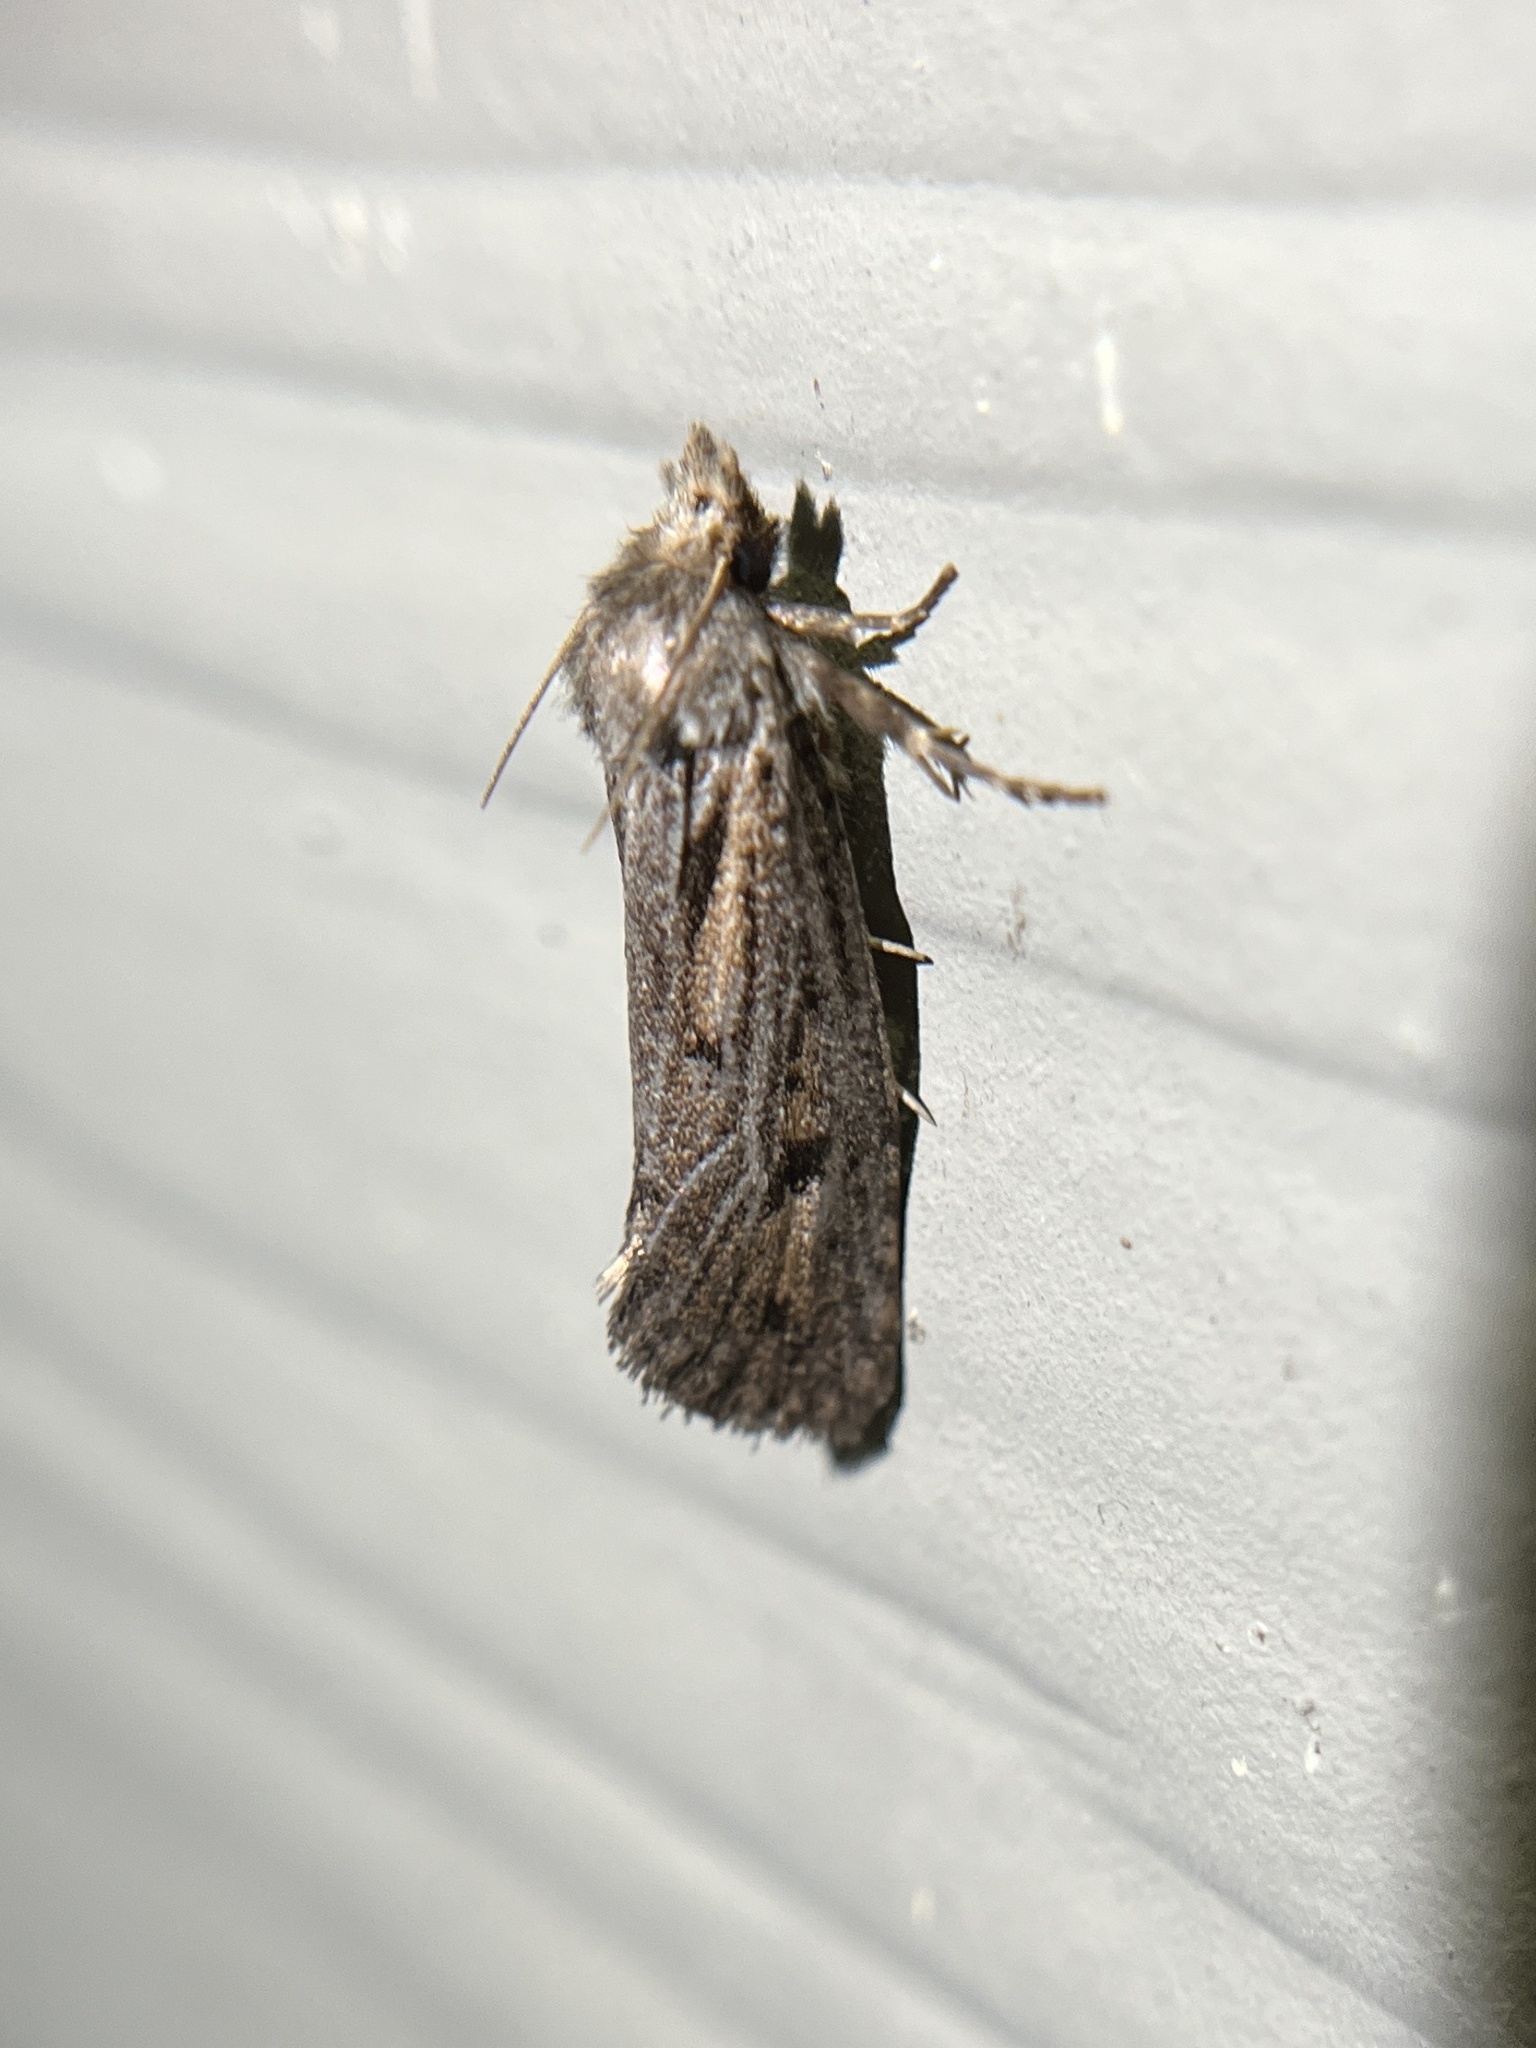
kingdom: Animalia
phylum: Arthropoda
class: Insecta
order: Lepidoptera
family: Tineidae
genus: Acrolophus
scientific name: Acrolophus popeanella
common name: Clemens' grass tubeworm moth
